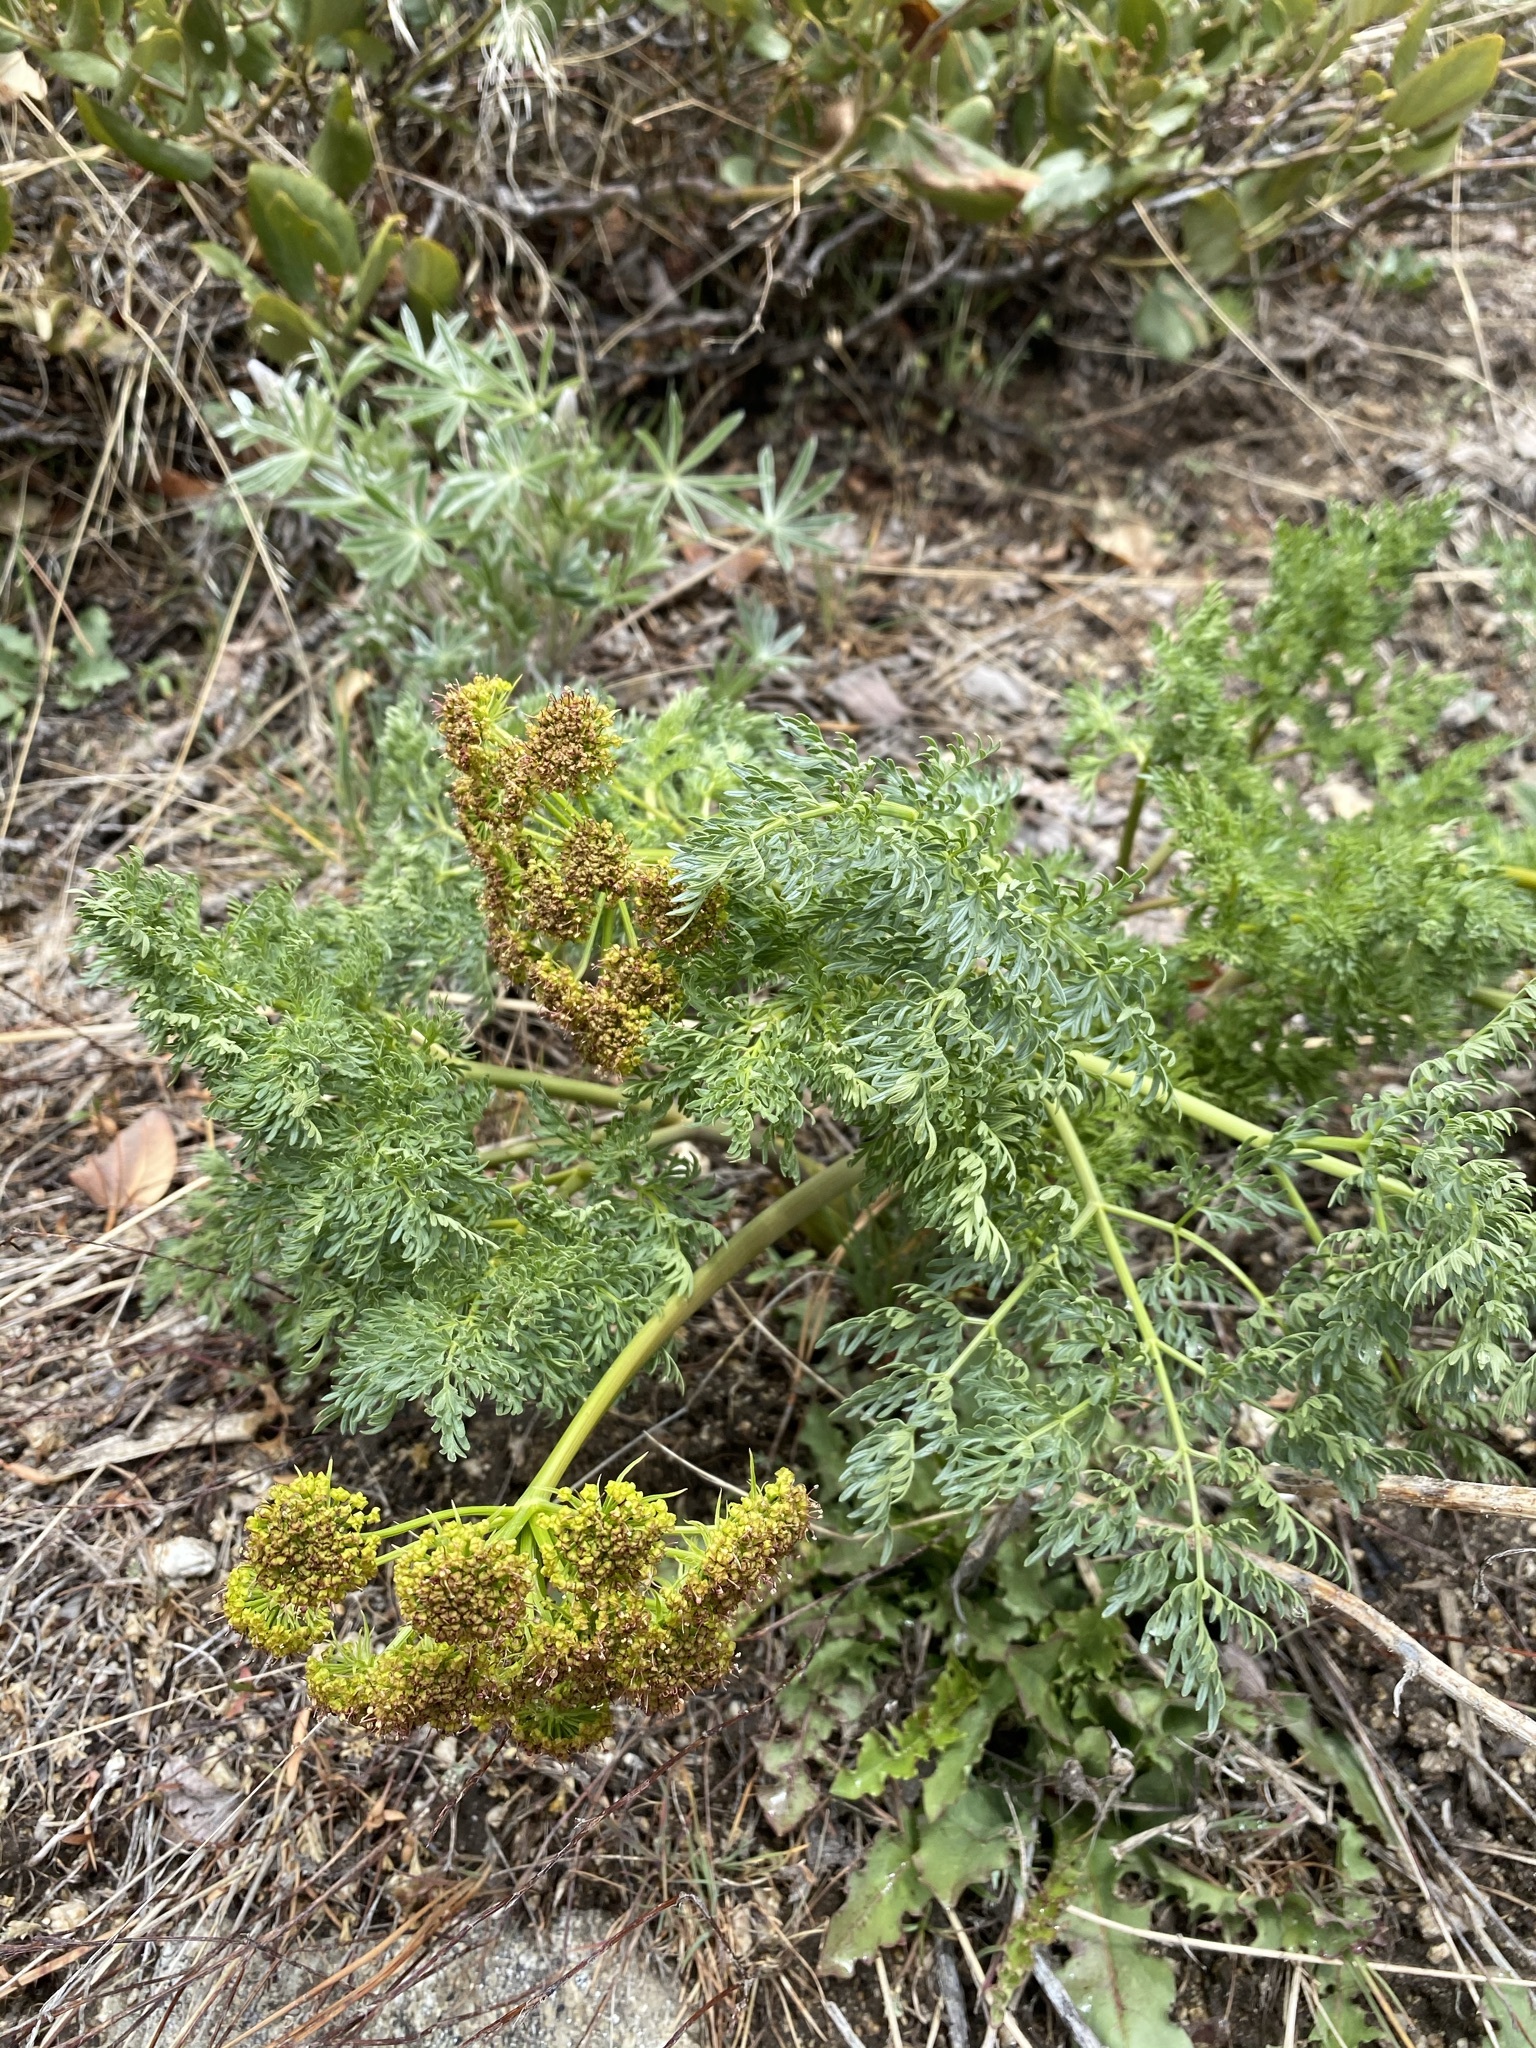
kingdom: Plantae
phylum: Tracheophyta
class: Magnoliopsida
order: Apiales
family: Apiaceae
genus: Lomatium
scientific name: Lomatium multifidum
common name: Carrot-leaved biscuitroot
